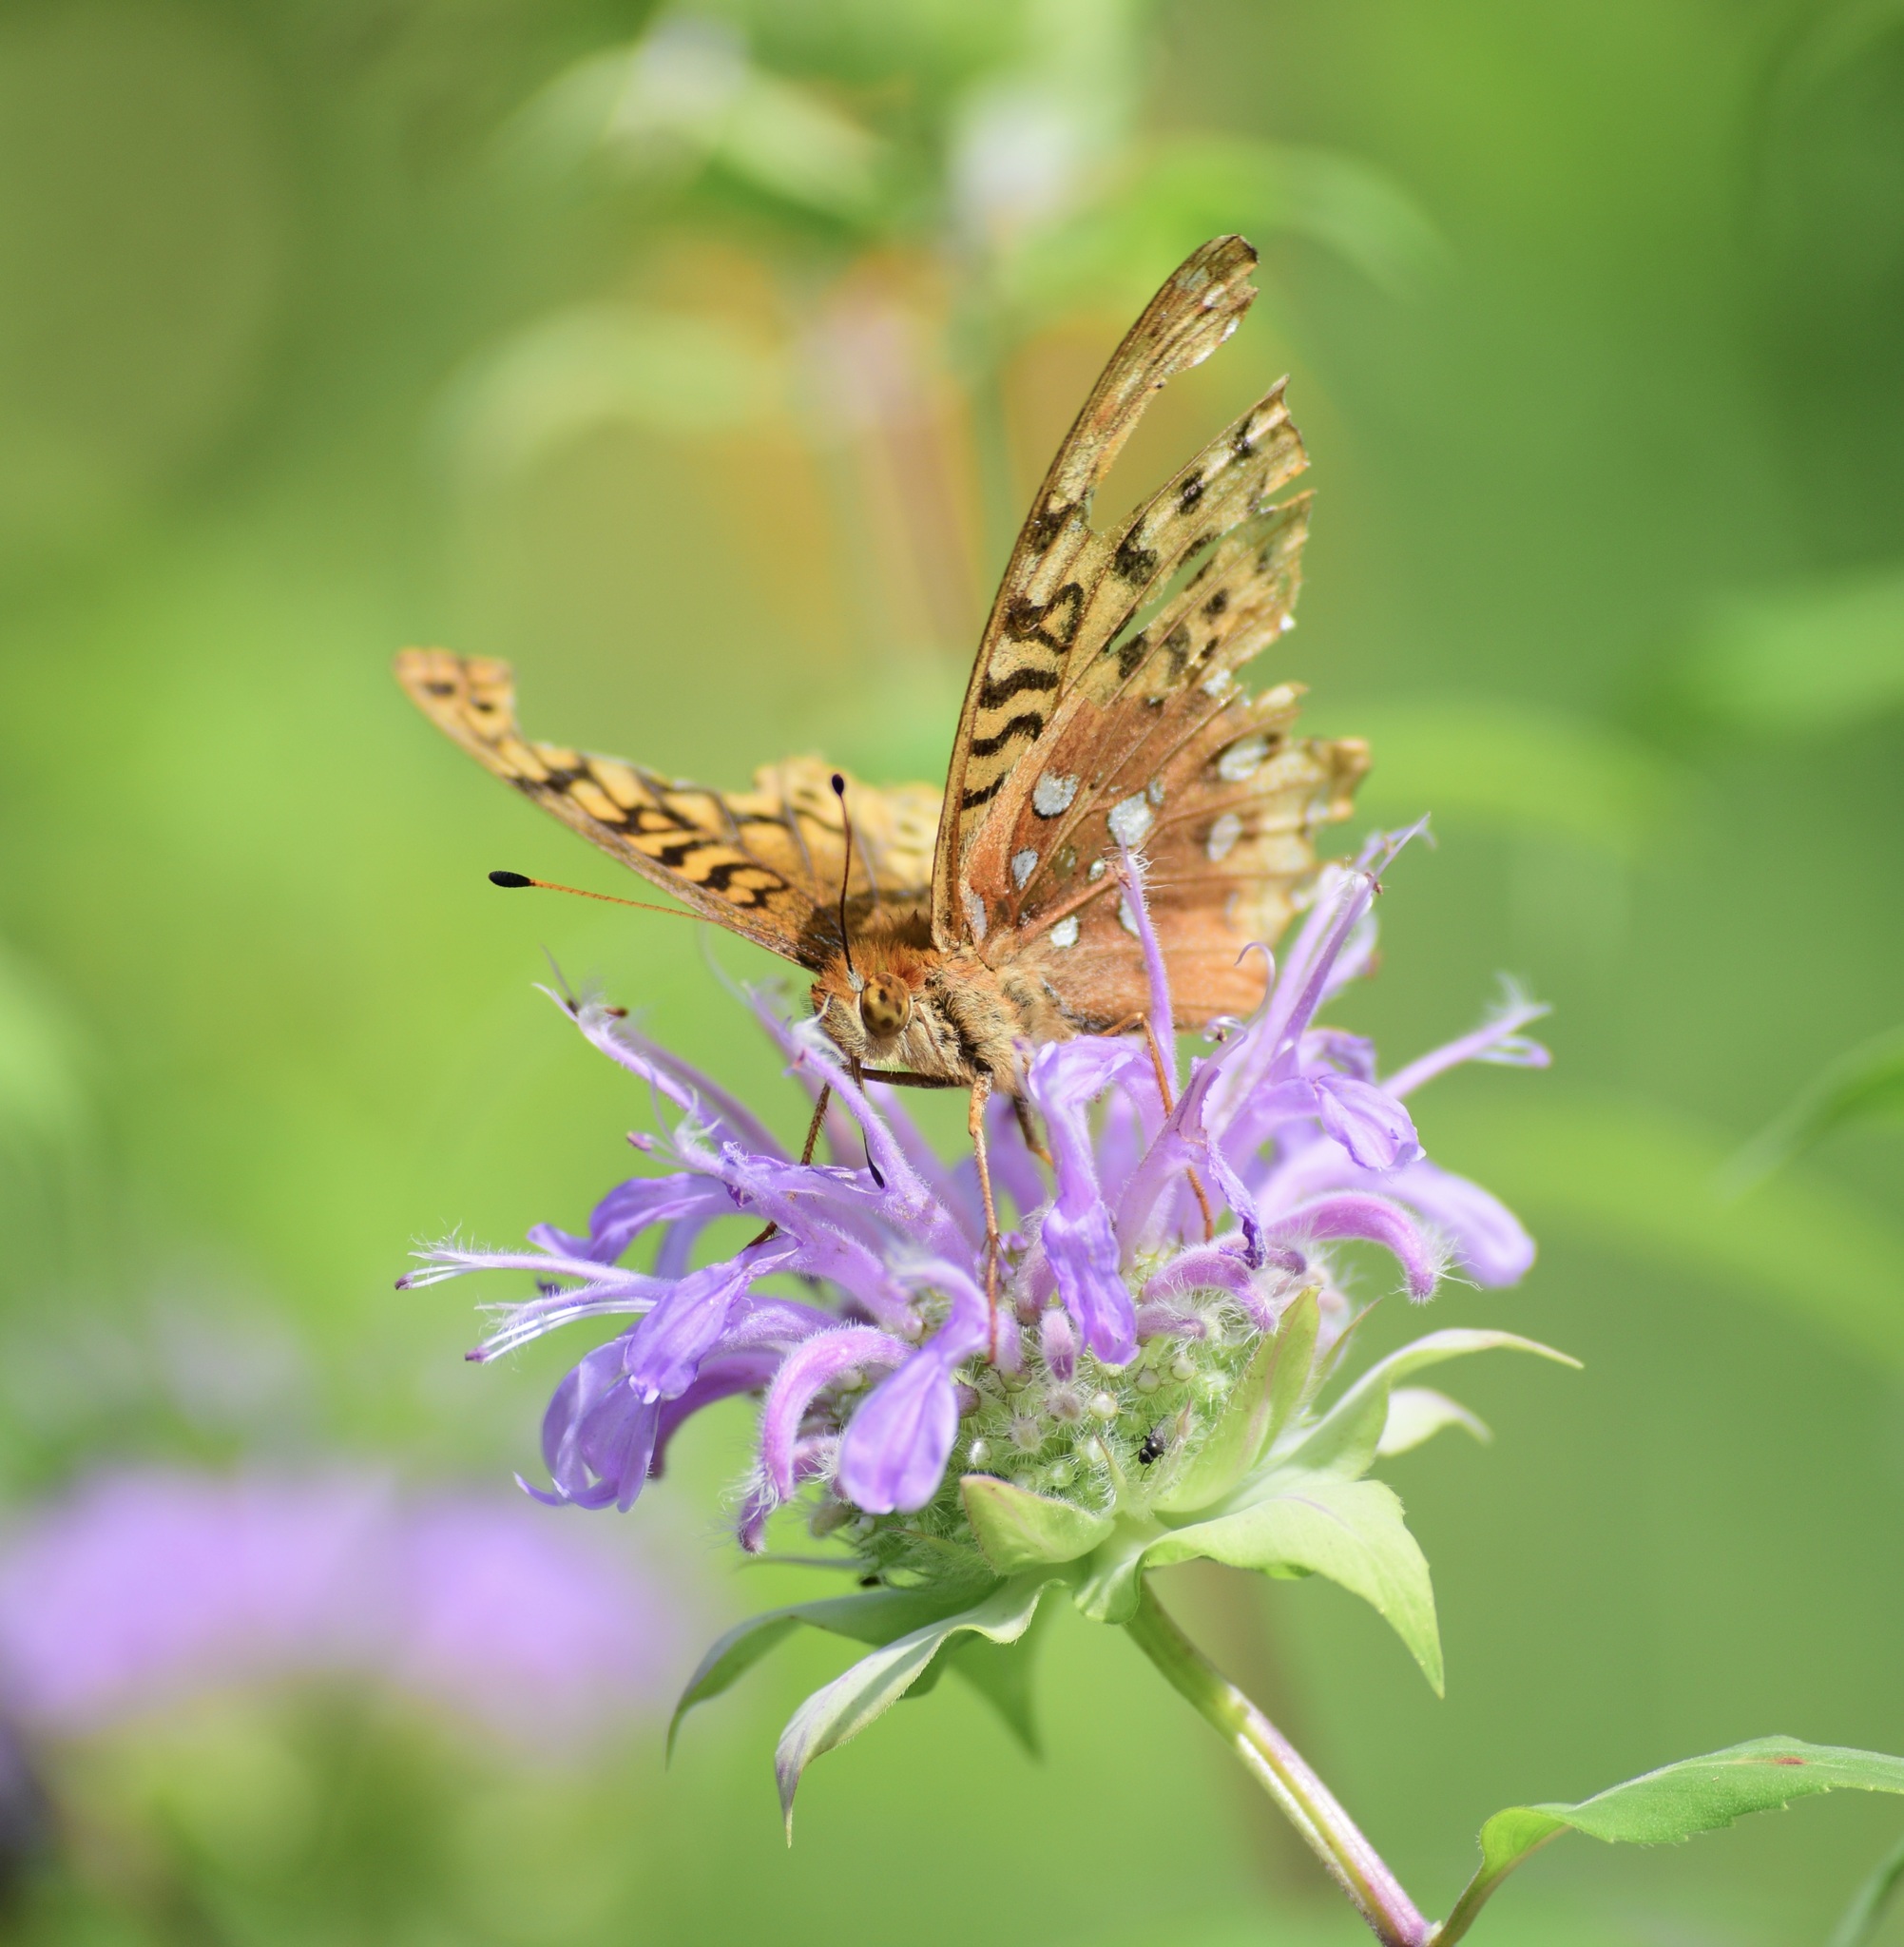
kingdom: Animalia
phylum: Arthropoda
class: Insecta
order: Lepidoptera
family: Nymphalidae
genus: Speyeria
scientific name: Speyeria cybele
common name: Great spangled fritillary
